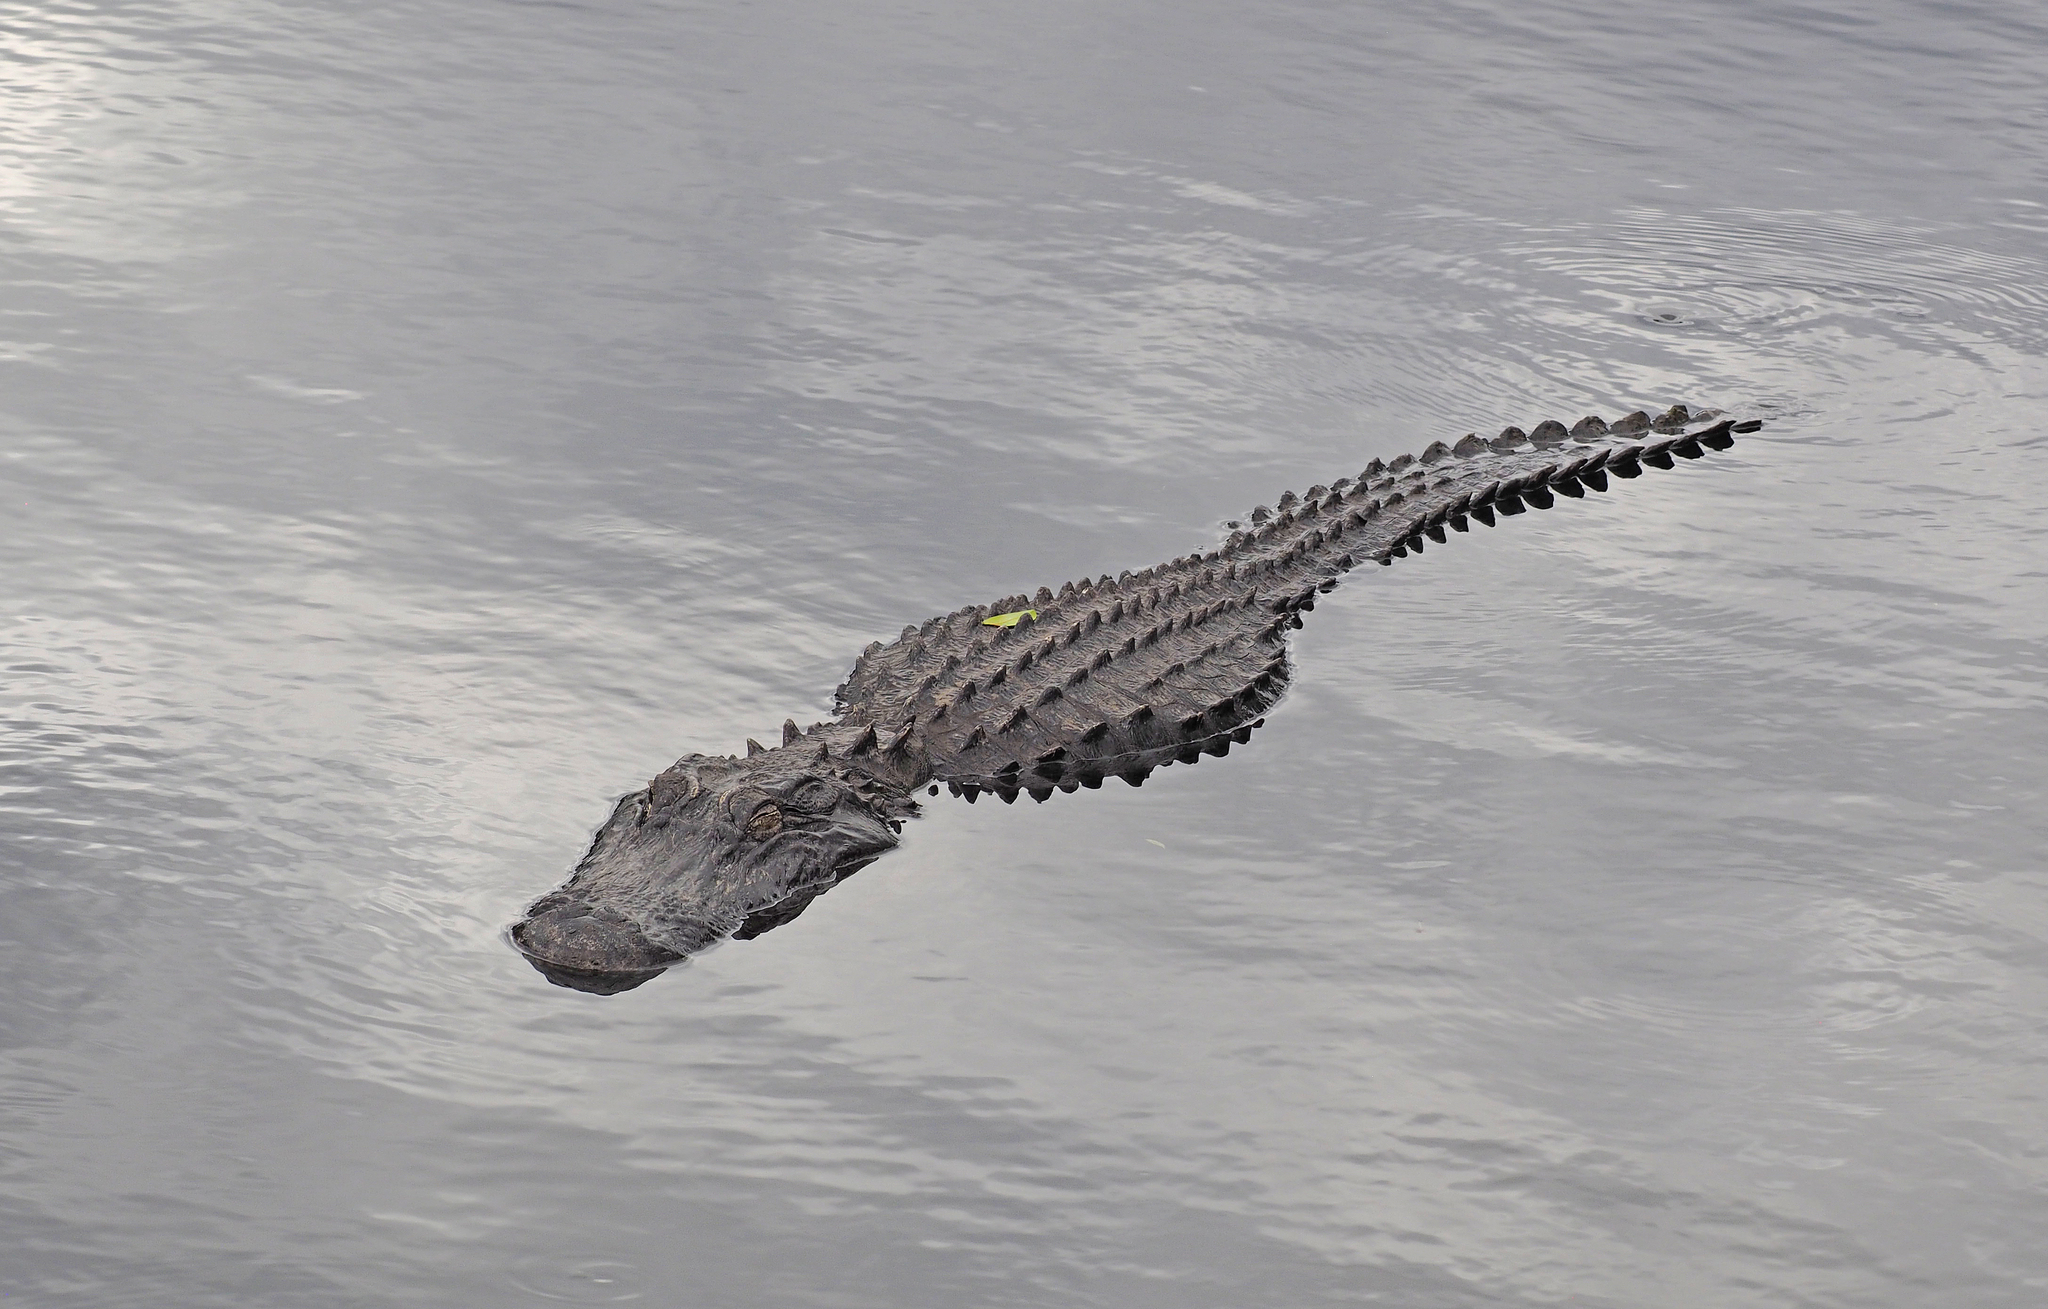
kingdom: Animalia
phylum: Chordata
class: Crocodylia
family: Alligatoridae
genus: Alligator
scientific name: Alligator mississippiensis
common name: American alligator
